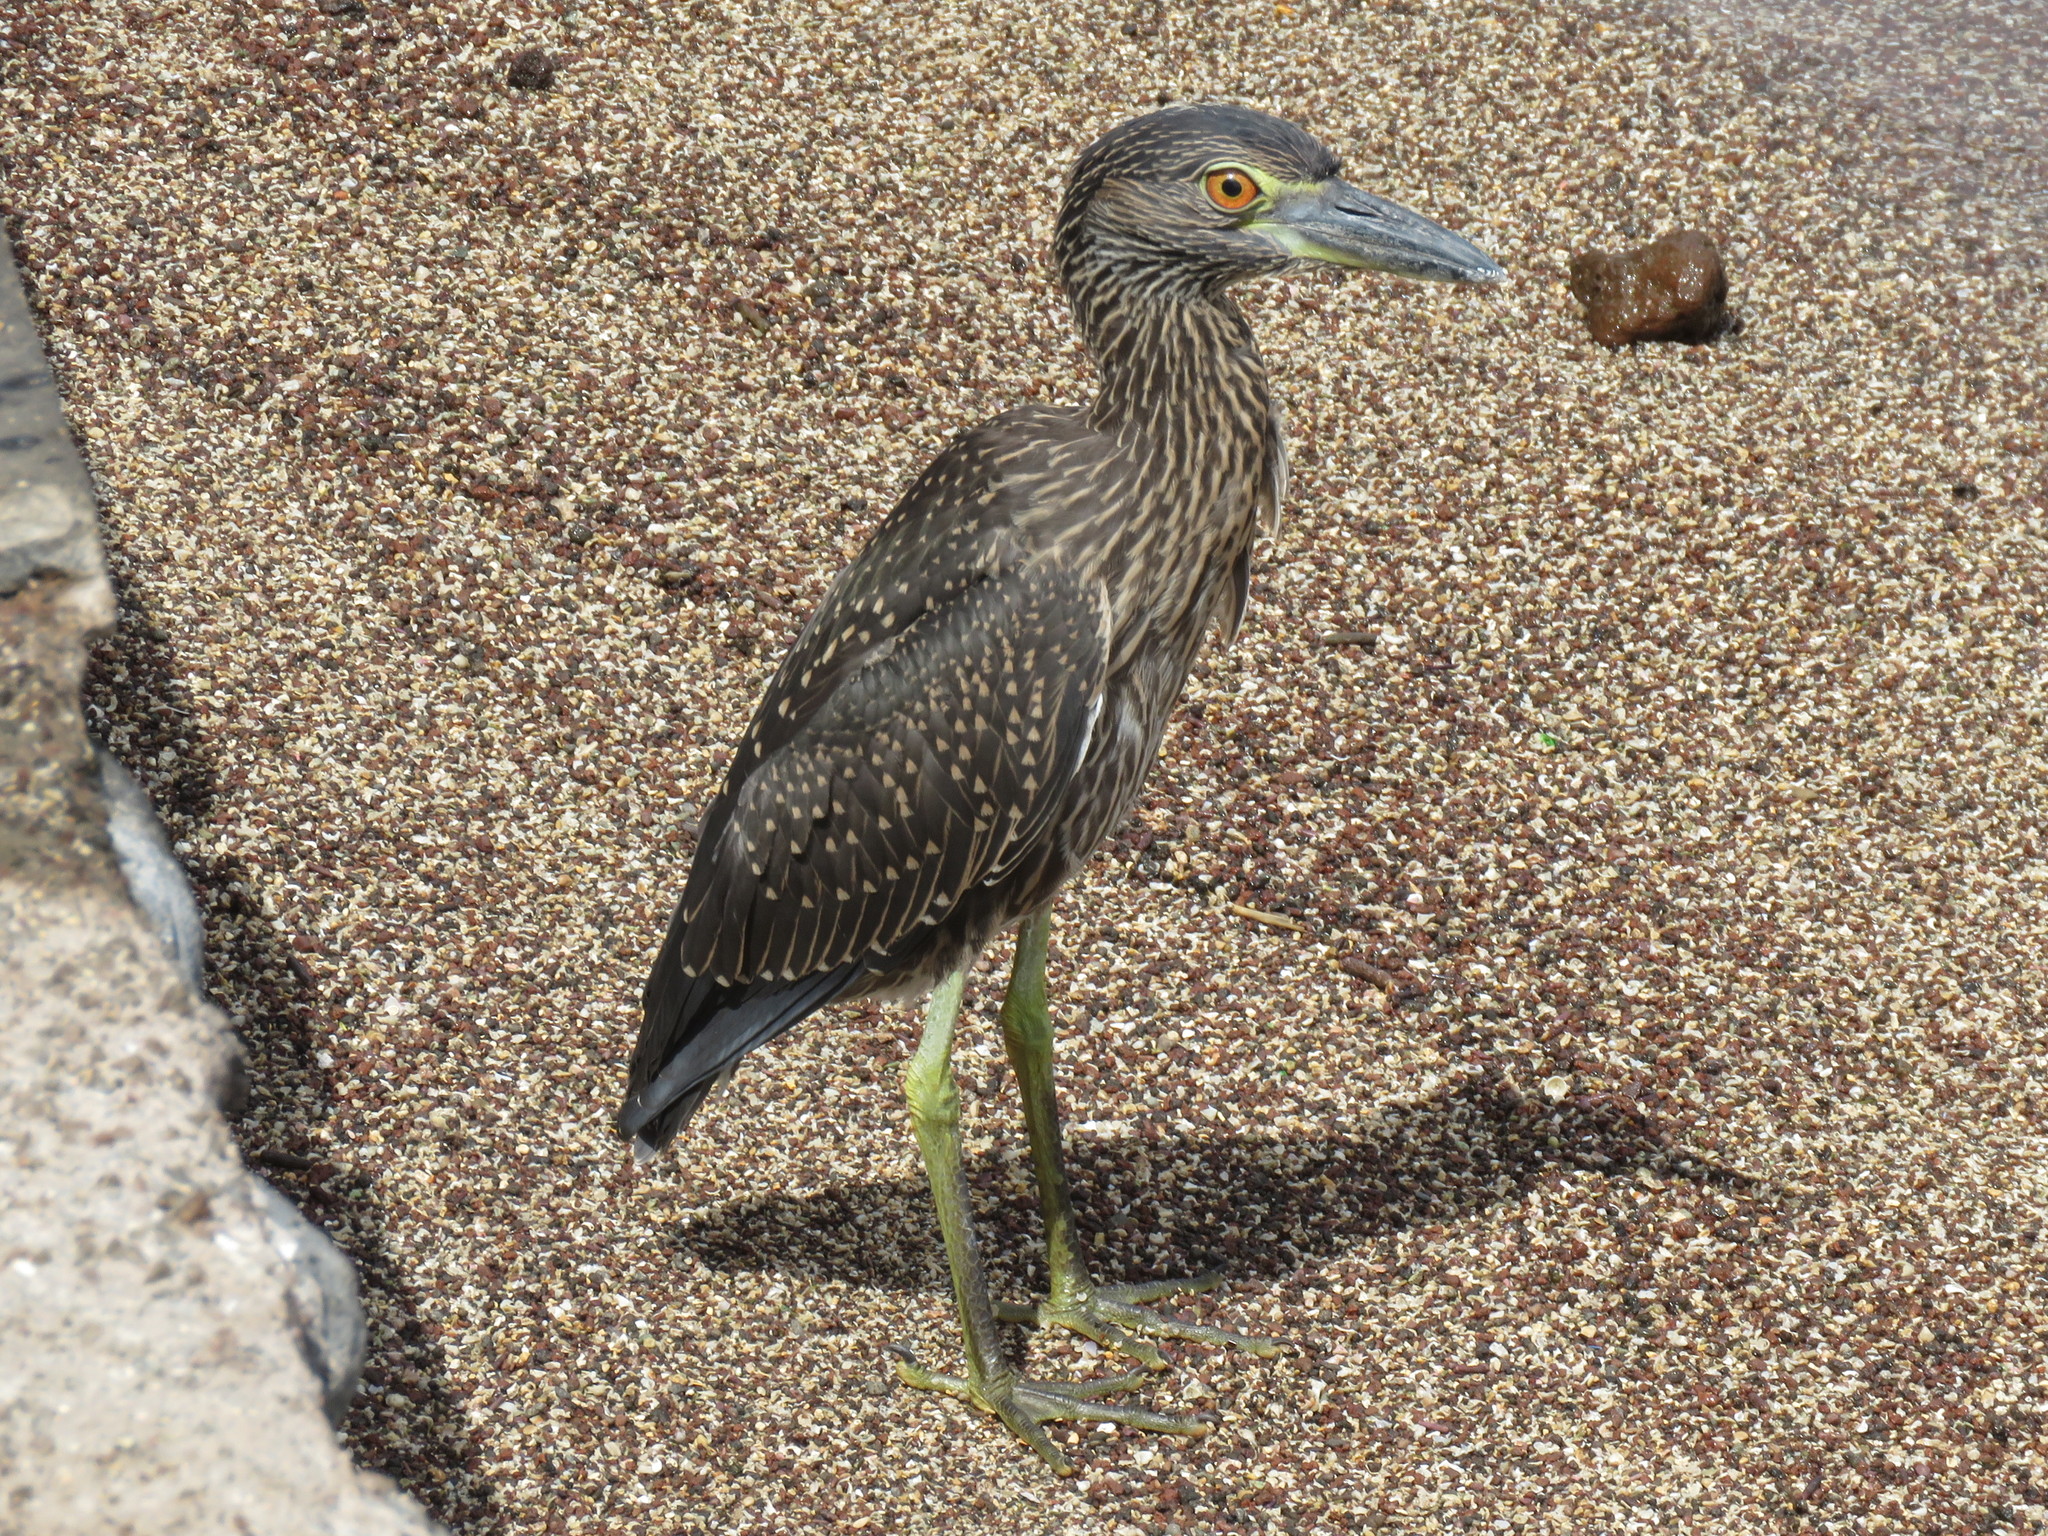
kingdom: Animalia
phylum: Chordata
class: Aves
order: Pelecaniformes
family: Ardeidae
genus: Nyctanassa
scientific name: Nyctanassa violacea
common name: Yellow-crowned night heron
